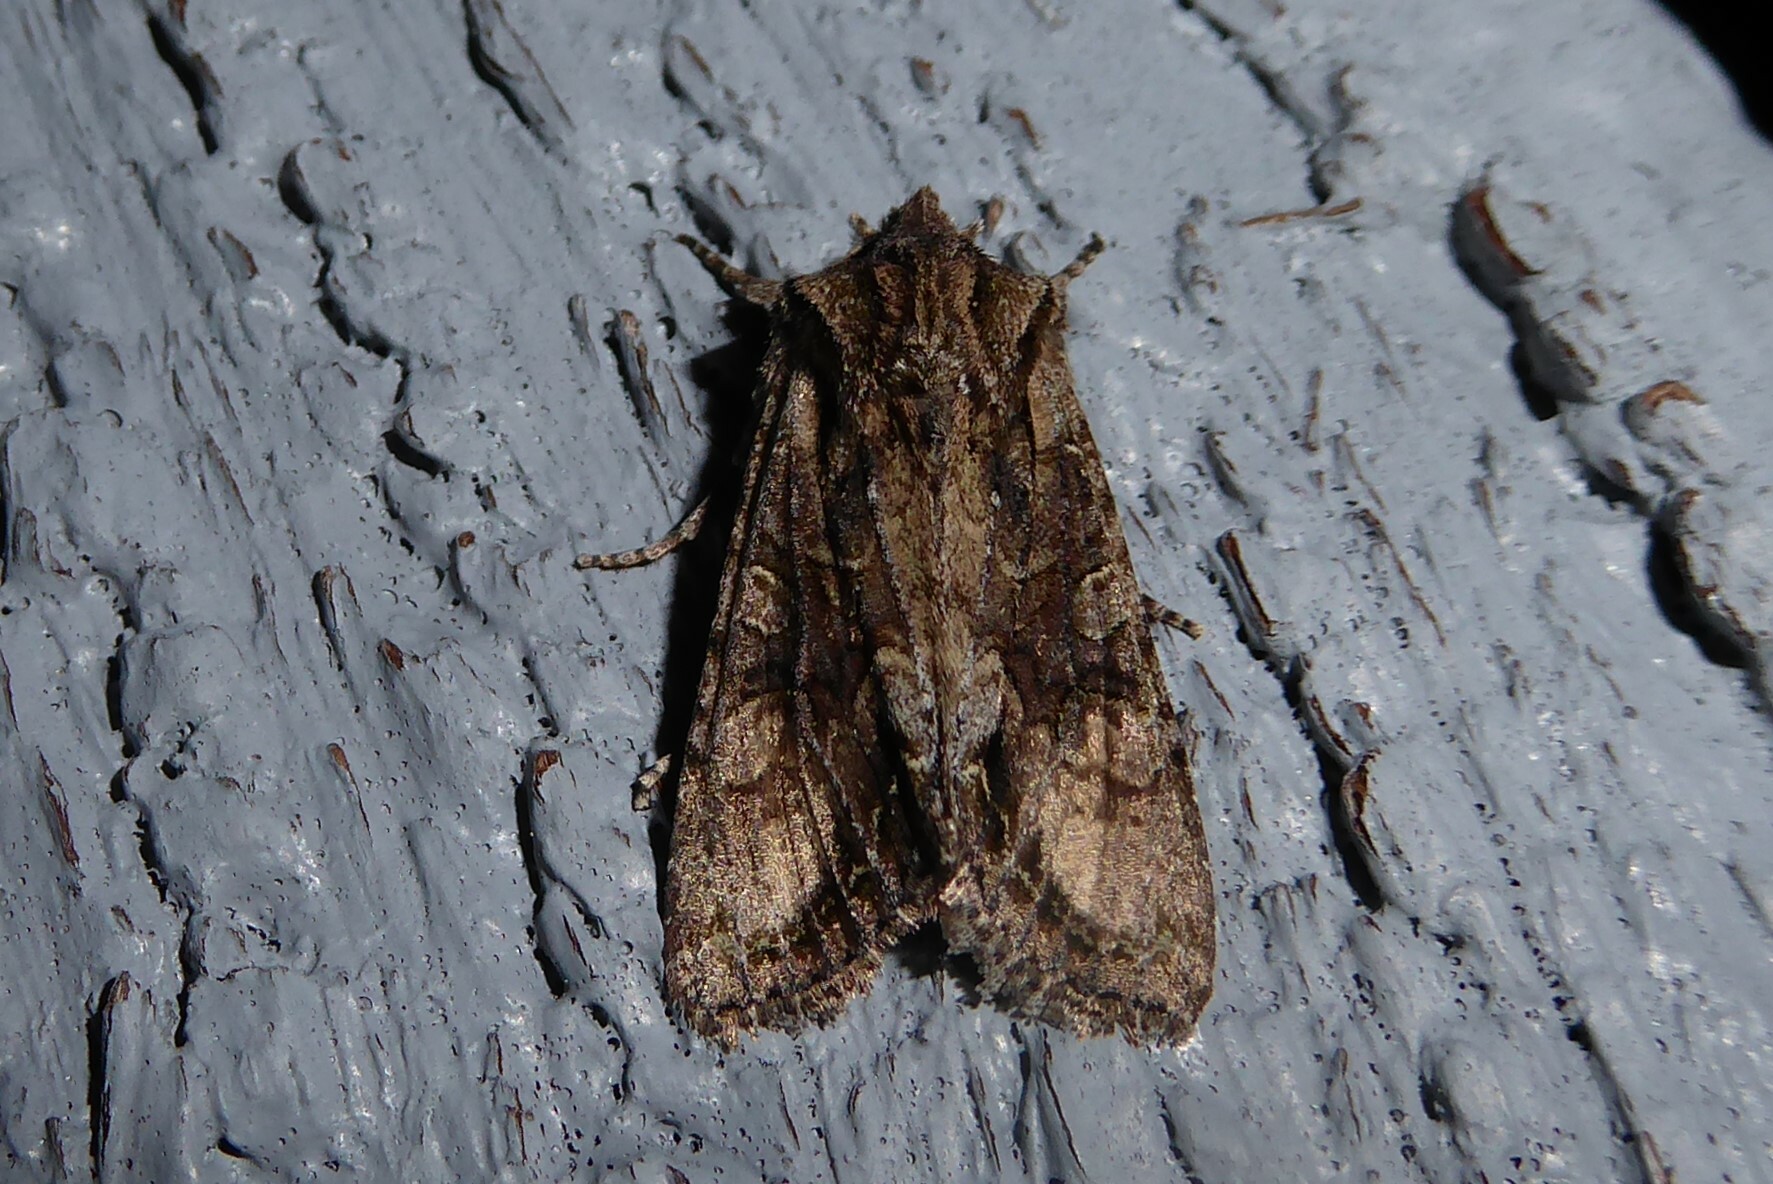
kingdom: Animalia
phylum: Arthropoda
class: Insecta
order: Lepidoptera
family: Noctuidae
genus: Ichneutica
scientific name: Ichneutica mutans
